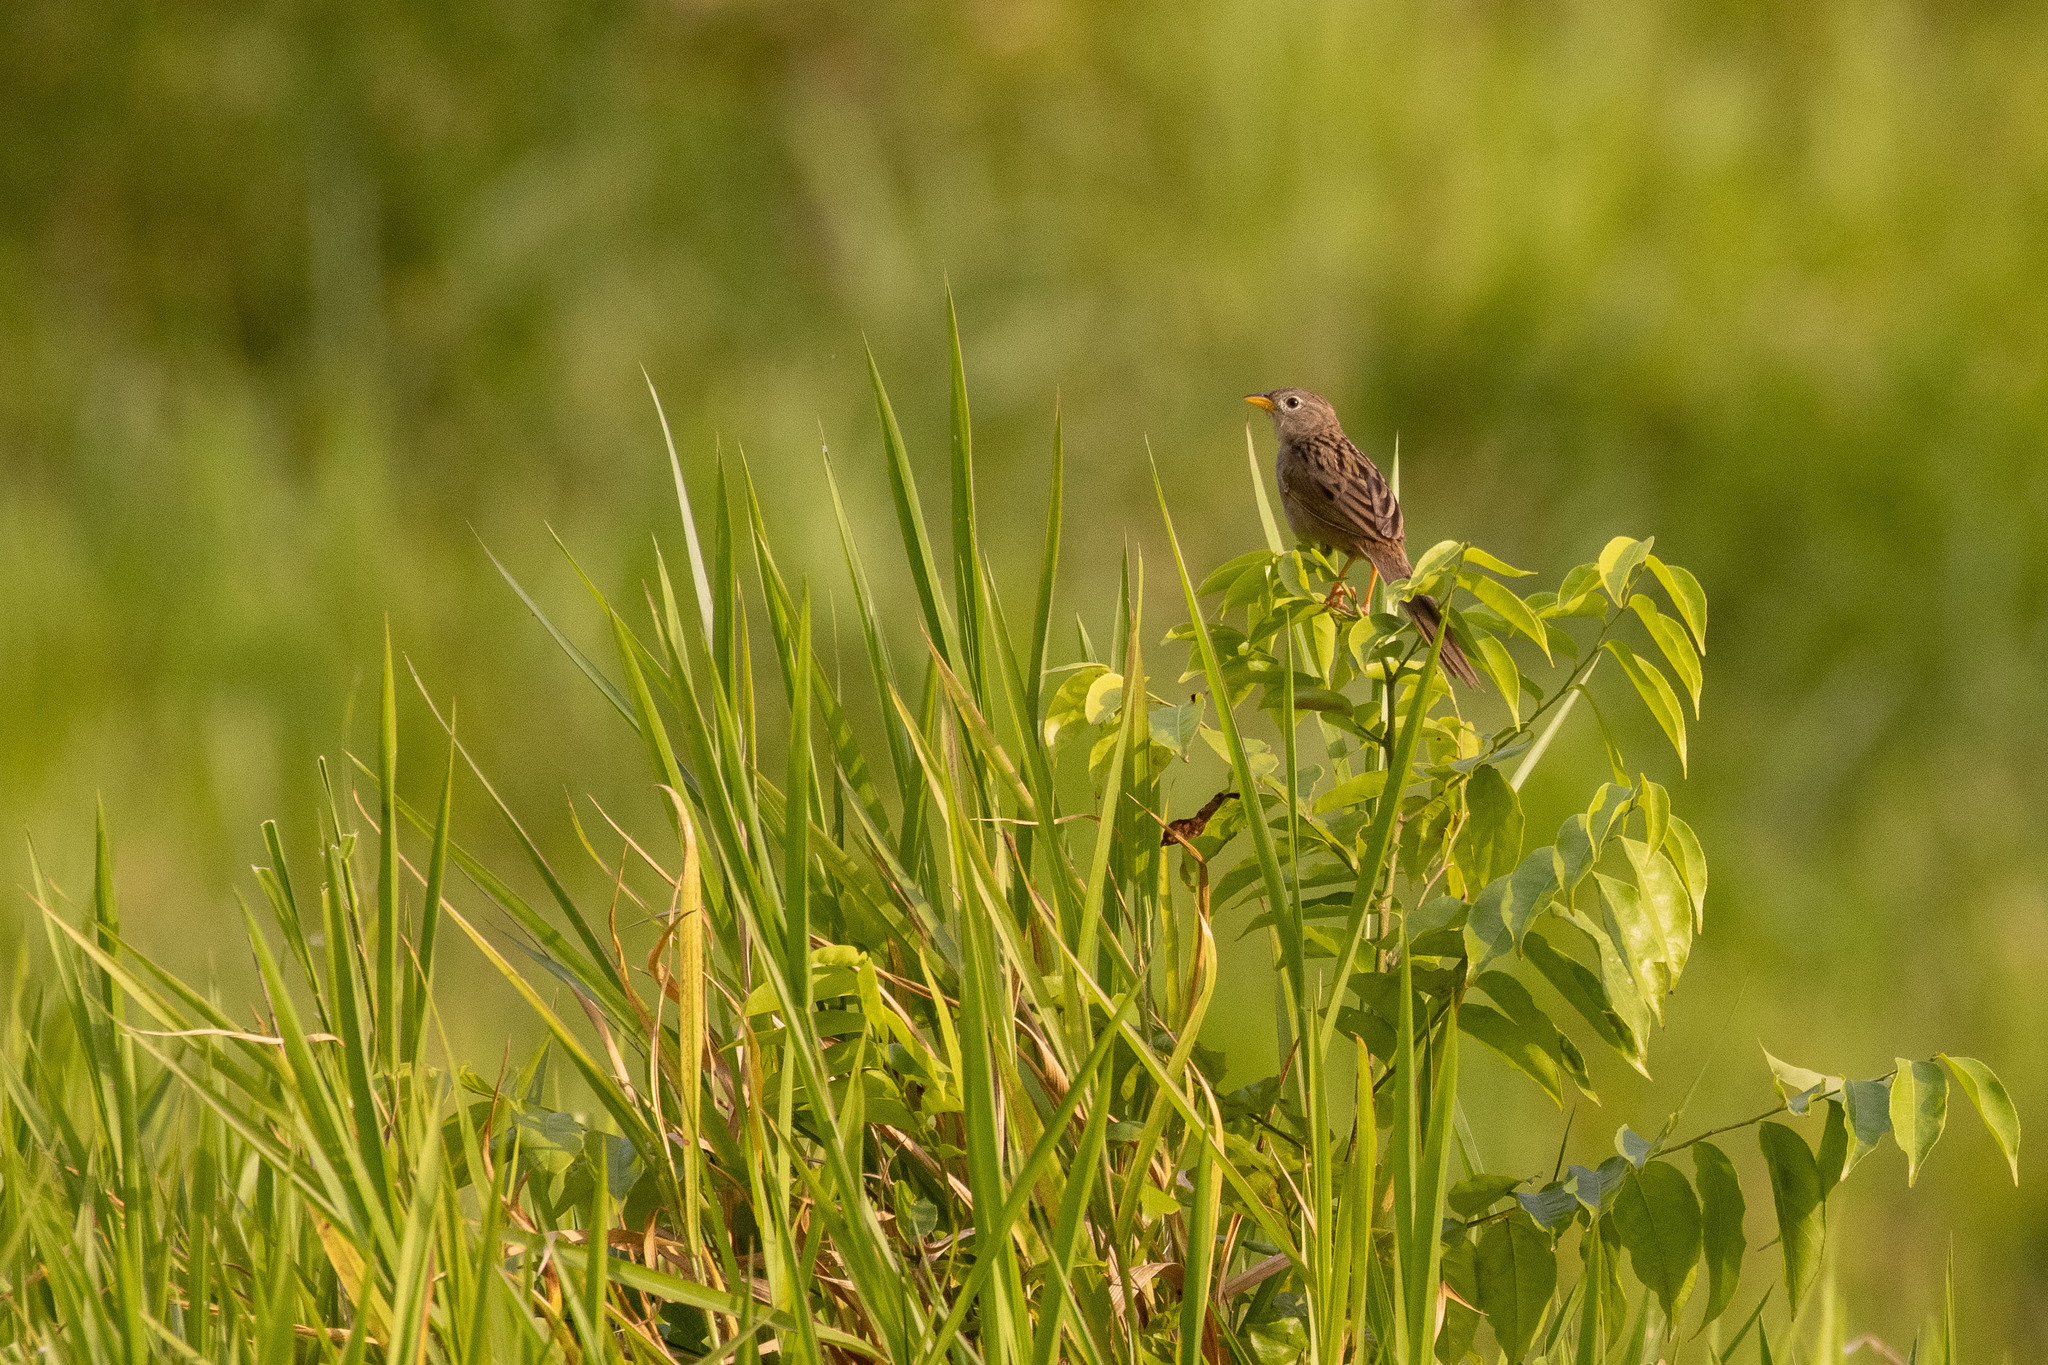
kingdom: Animalia
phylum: Chordata
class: Aves
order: Passeriformes
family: Thraupidae
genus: Emberizoides
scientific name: Emberizoides herbicola
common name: Wedge-tailed grass-finch
